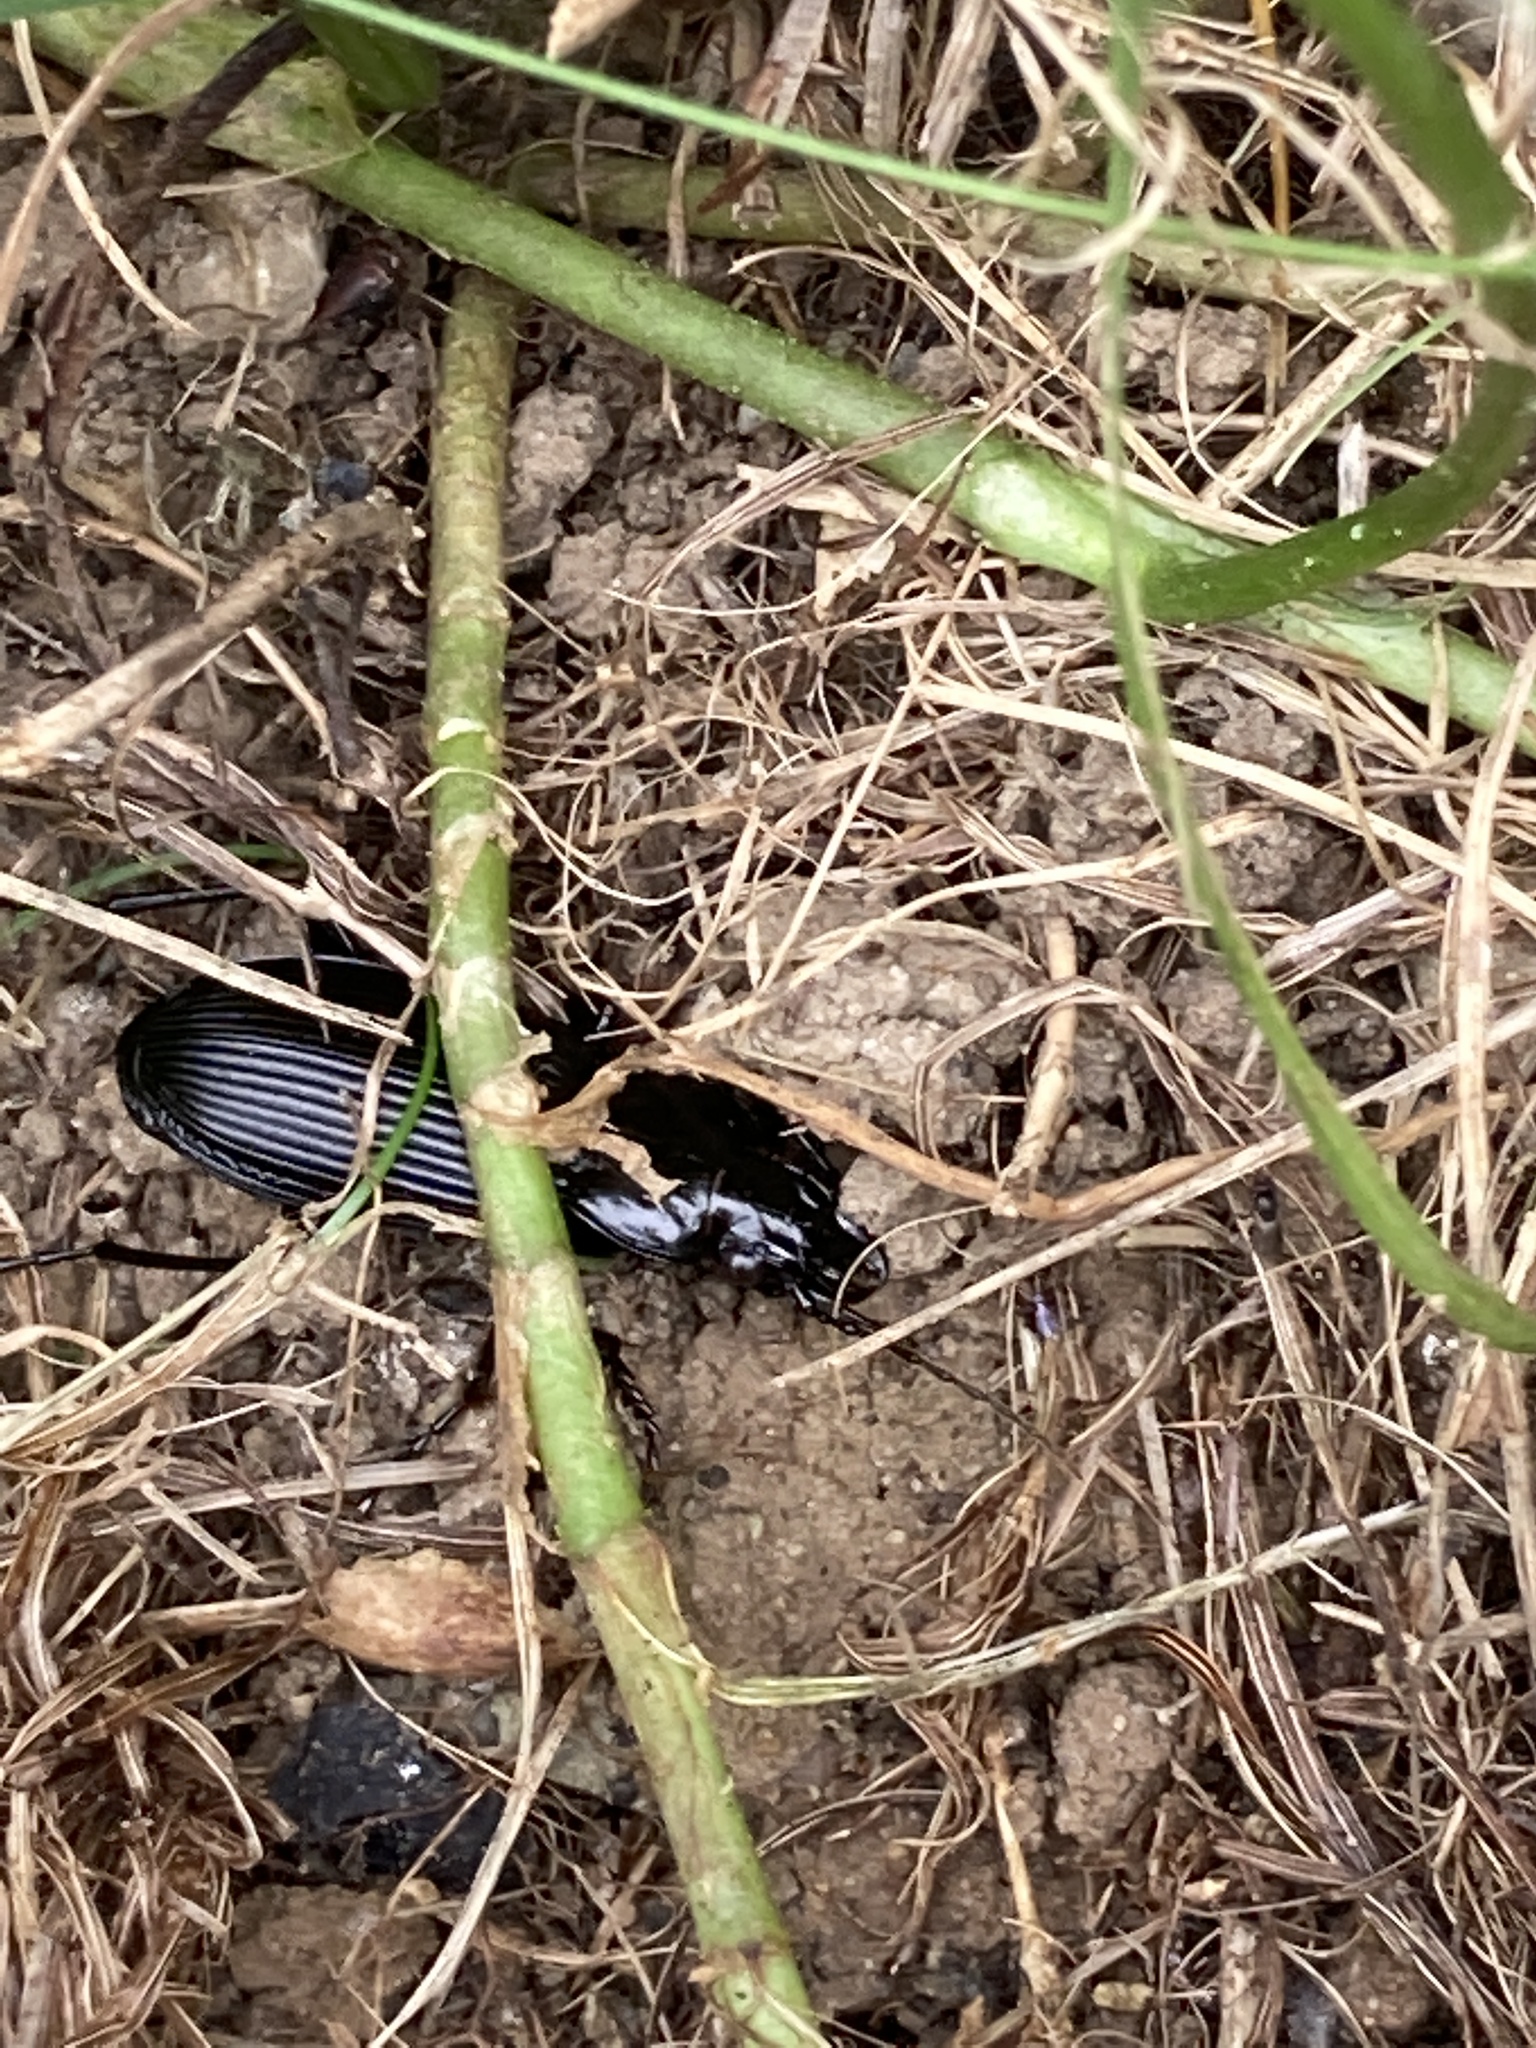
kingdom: Animalia
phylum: Arthropoda
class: Insecta
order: Coleoptera
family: Carabidae
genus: Pterostichus
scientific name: Pterostichus niger
